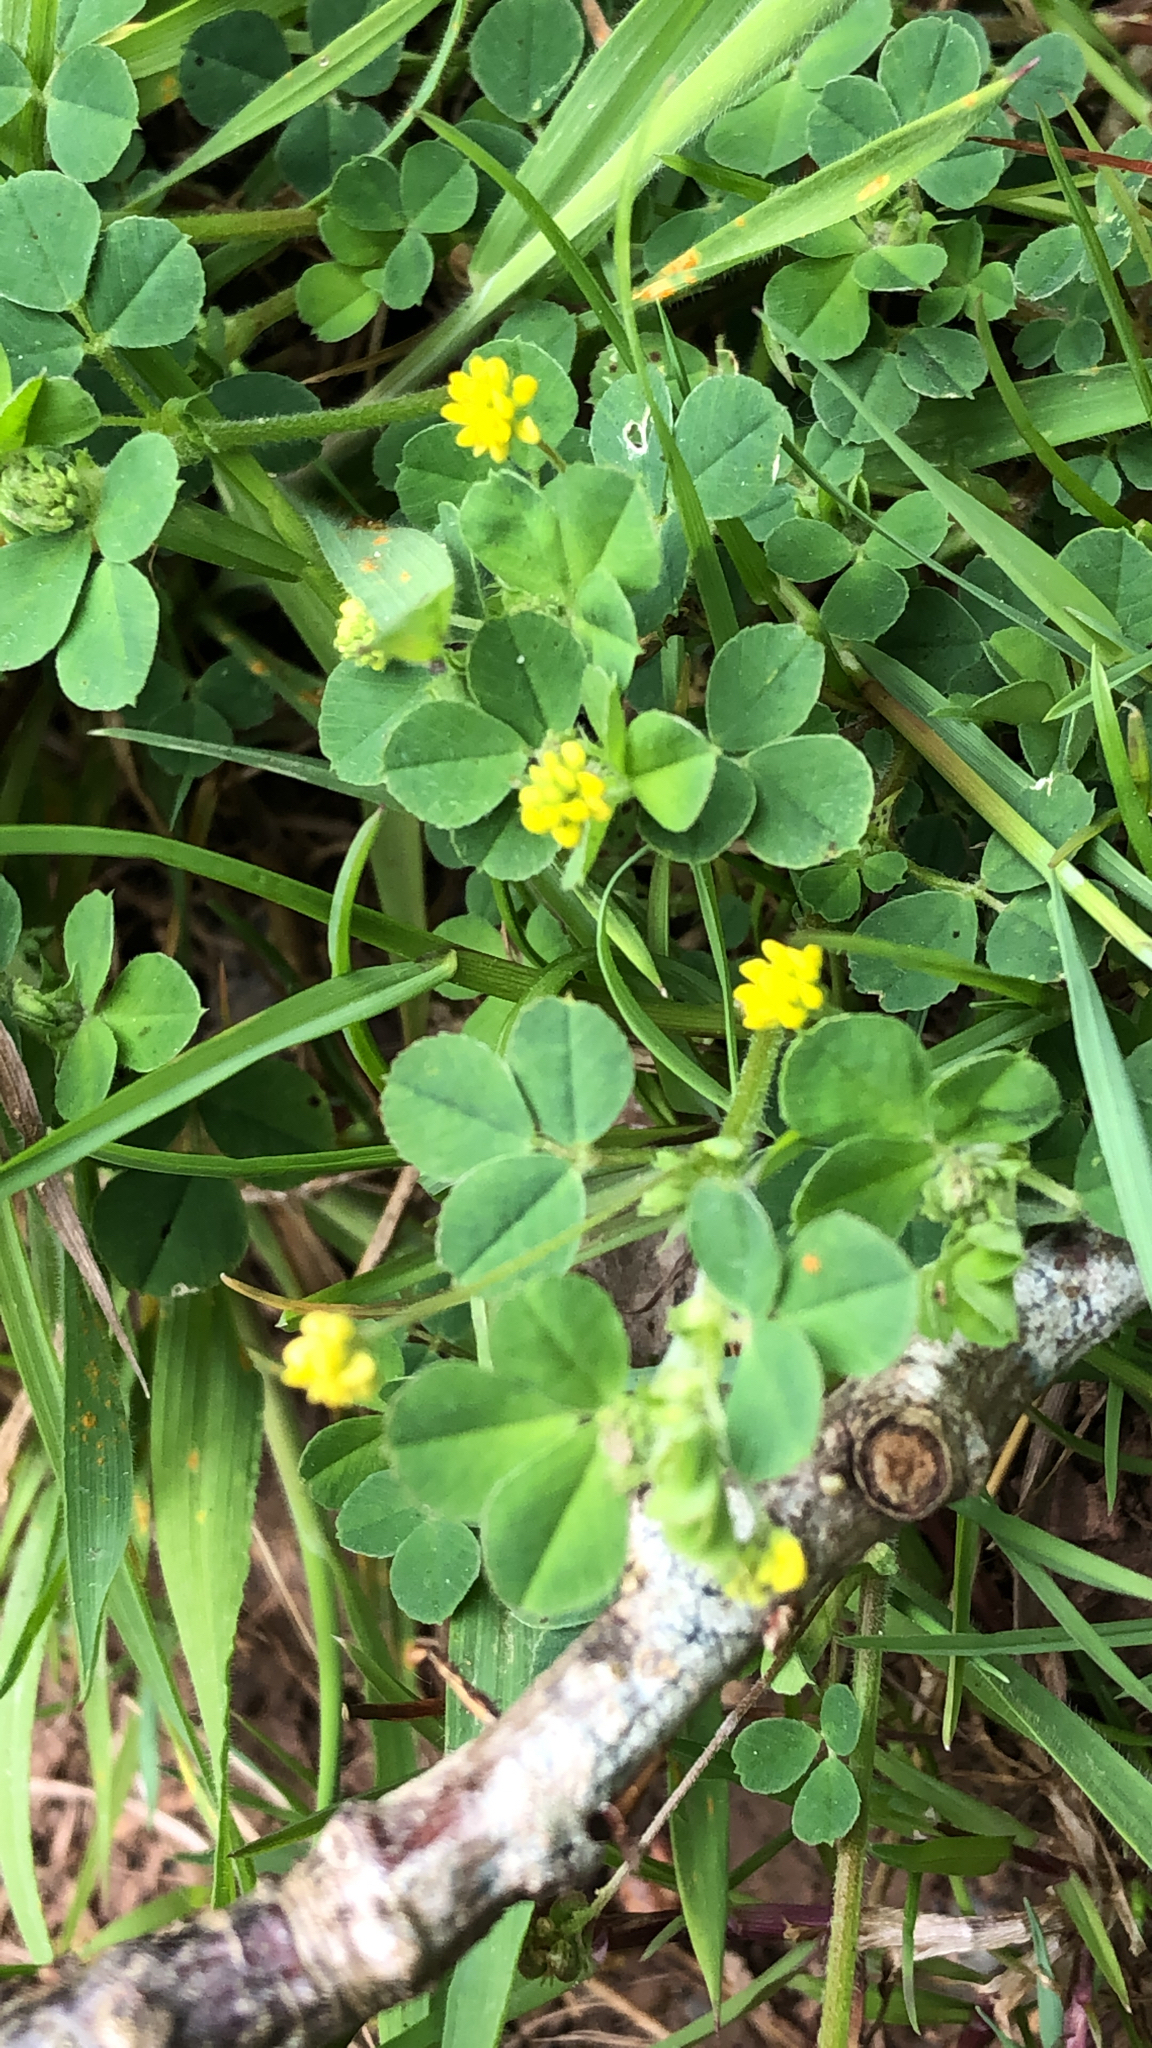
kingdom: Plantae
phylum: Tracheophyta
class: Magnoliopsida
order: Fabales
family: Fabaceae
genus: Medicago
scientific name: Medicago lupulina
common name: Black medick
